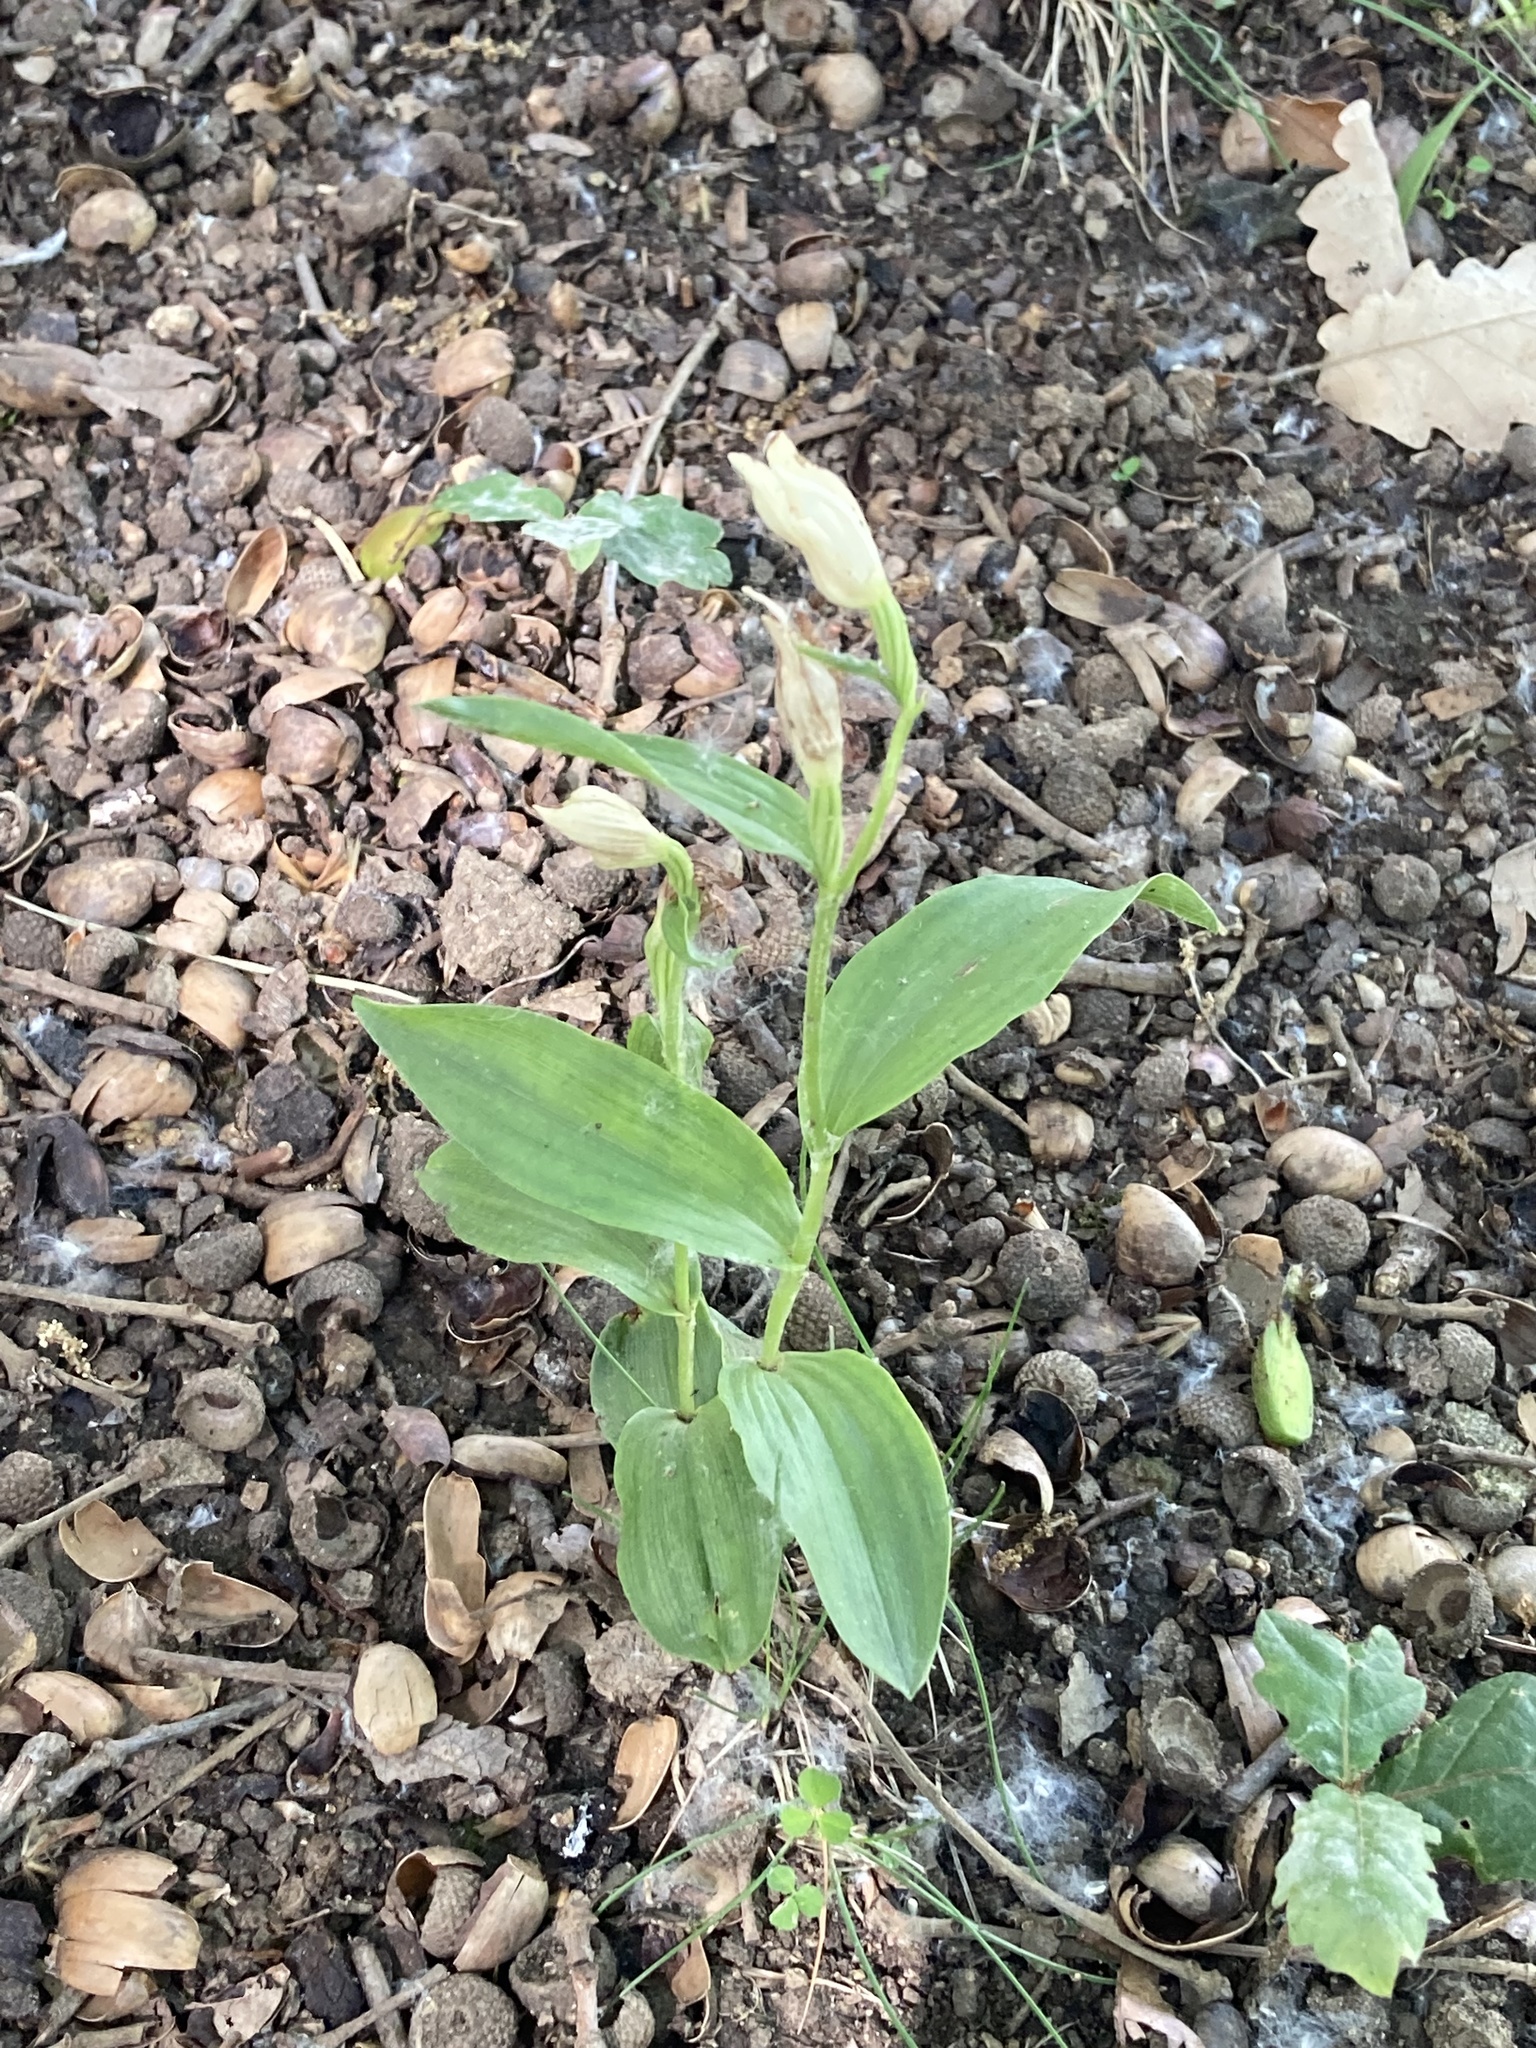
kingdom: Plantae
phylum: Tracheophyta
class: Liliopsida
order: Asparagales
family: Orchidaceae
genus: Cephalanthera
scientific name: Cephalanthera damasonium
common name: White helleborine
